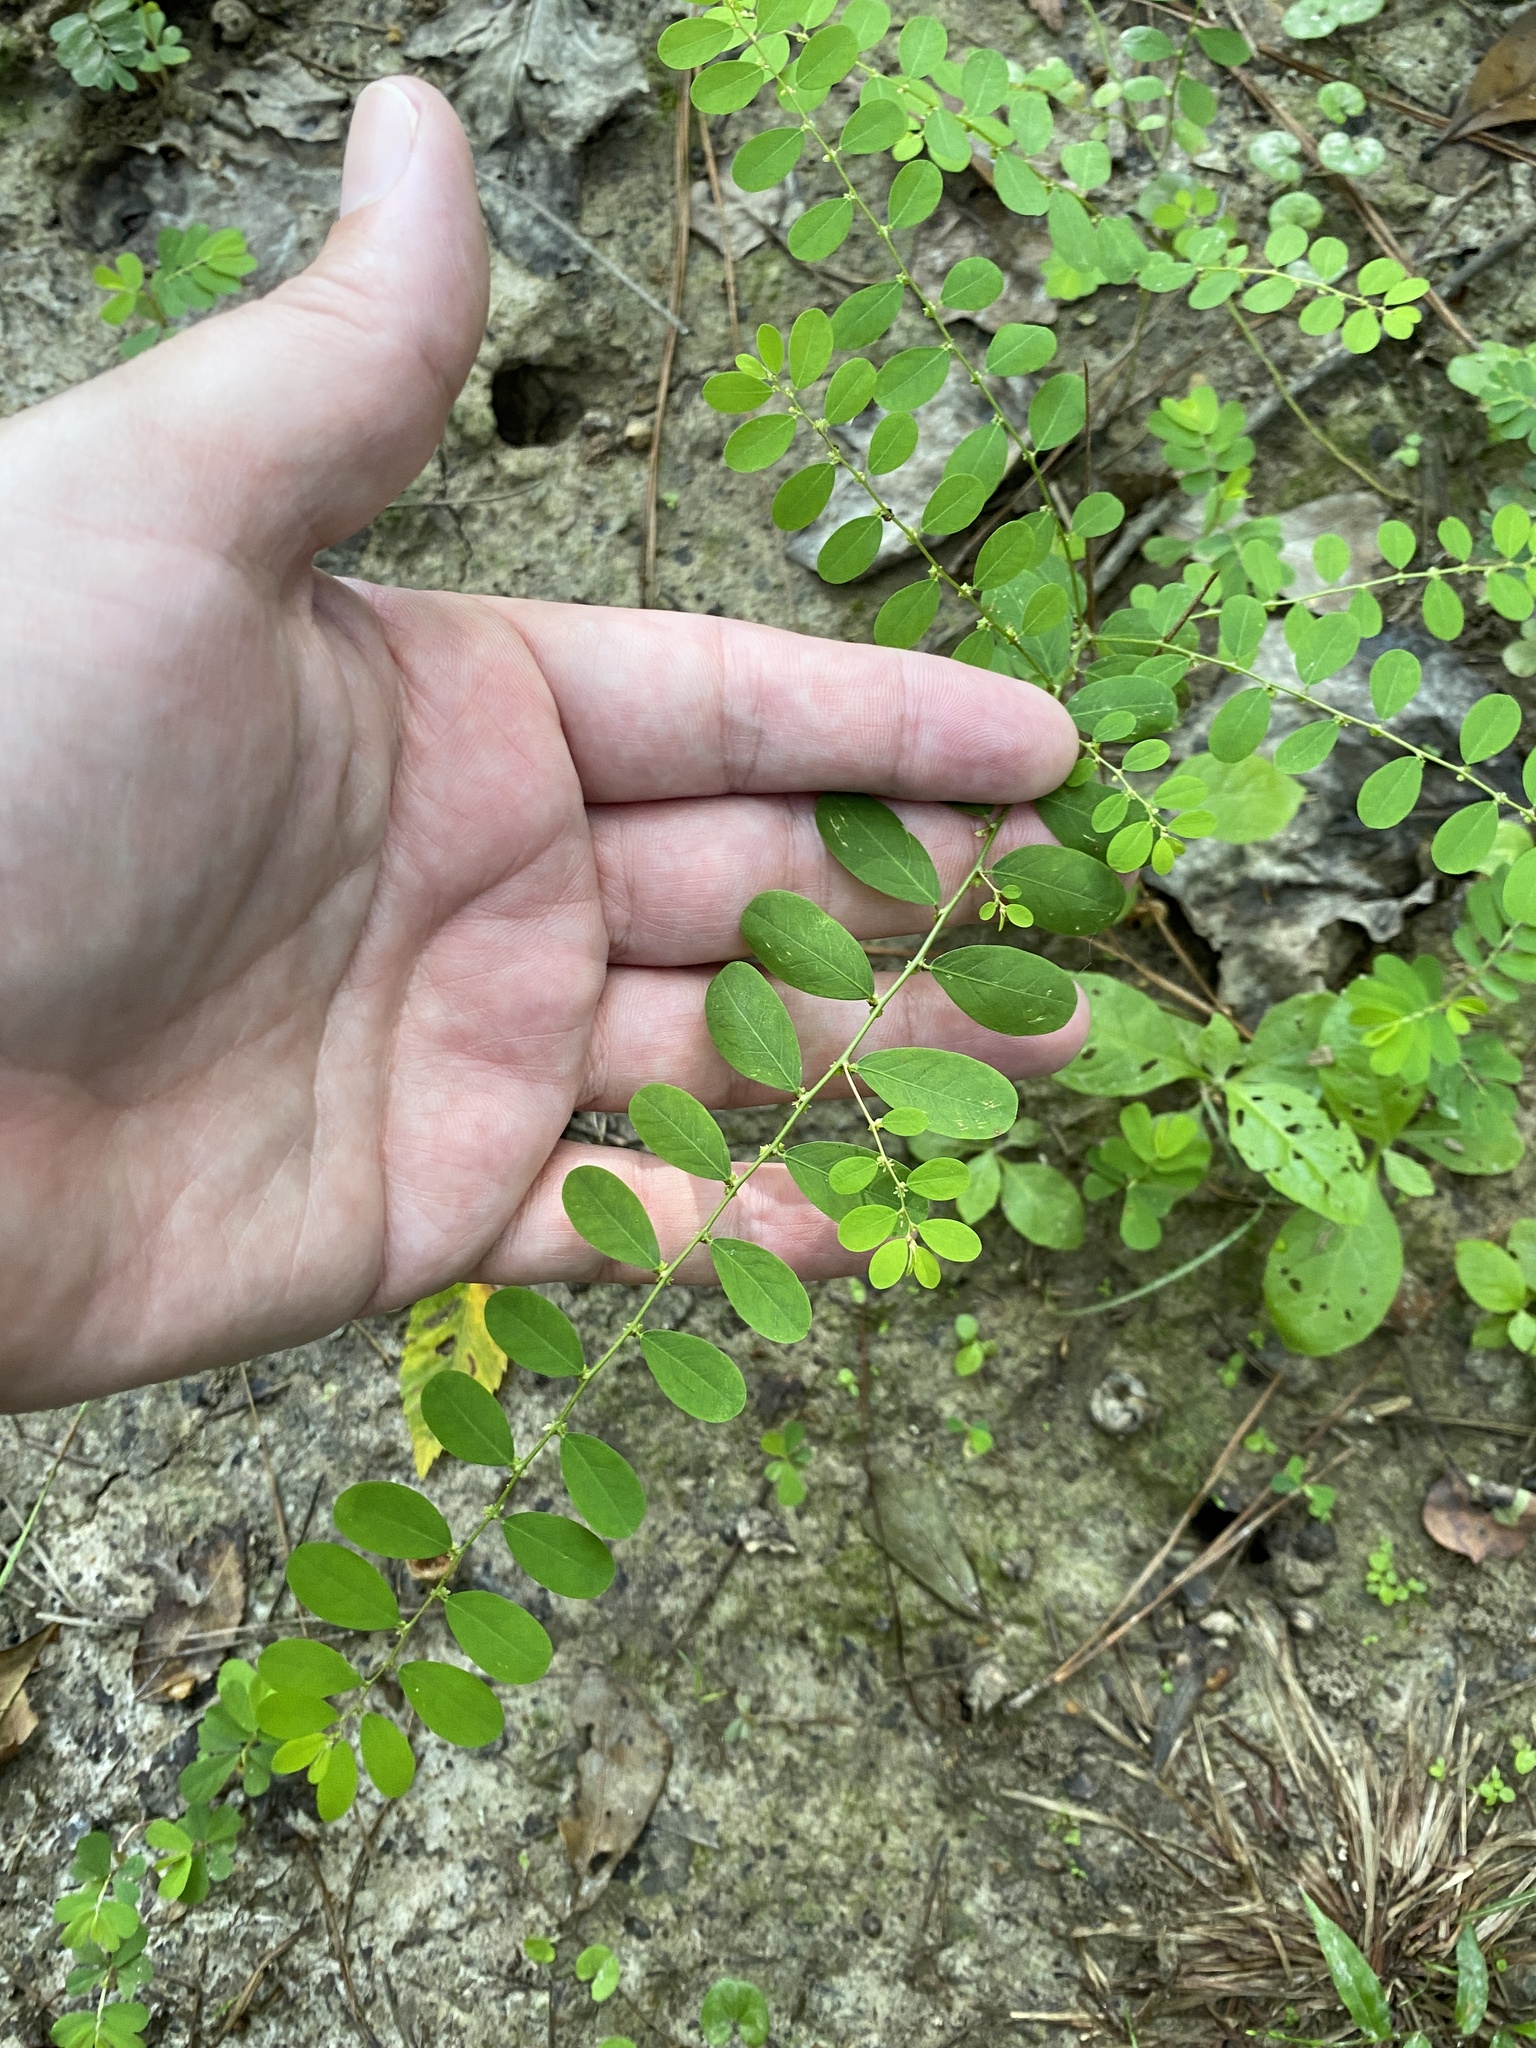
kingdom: Plantae
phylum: Tracheophyta
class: Magnoliopsida
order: Malpighiales
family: Phyllanthaceae
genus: Phyllanthus
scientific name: Phyllanthus caroliniensis
